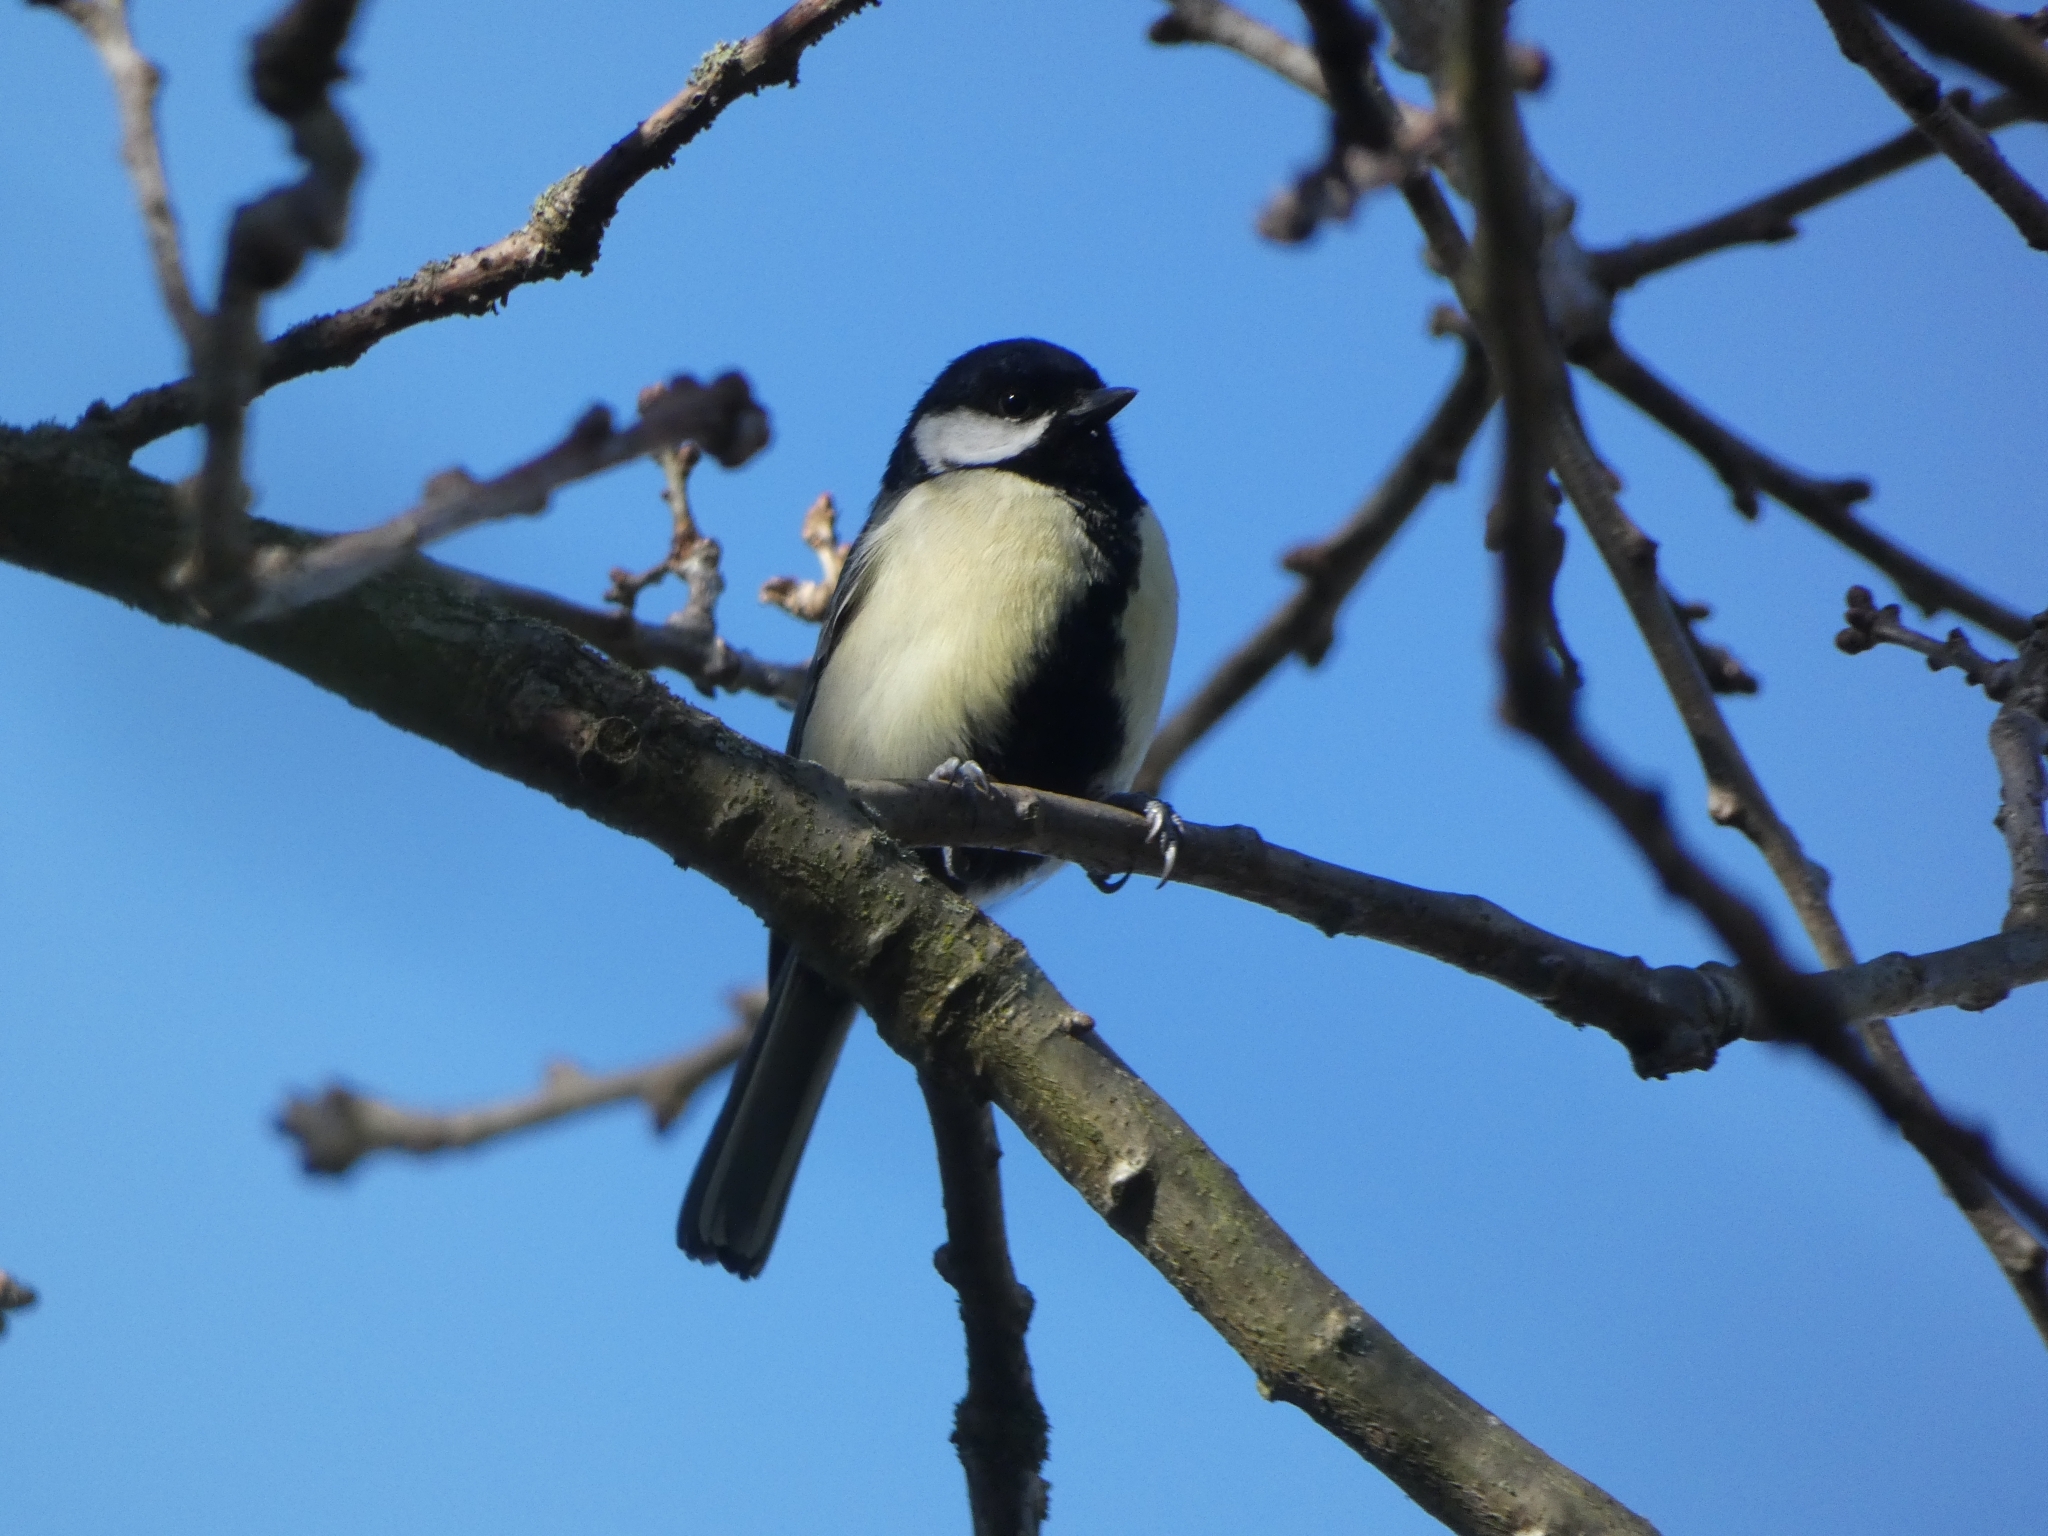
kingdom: Animalia
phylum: Chordata
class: Aves
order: Passeriformes
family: Paridae
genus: Parus
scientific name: Parus major
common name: Great tit
